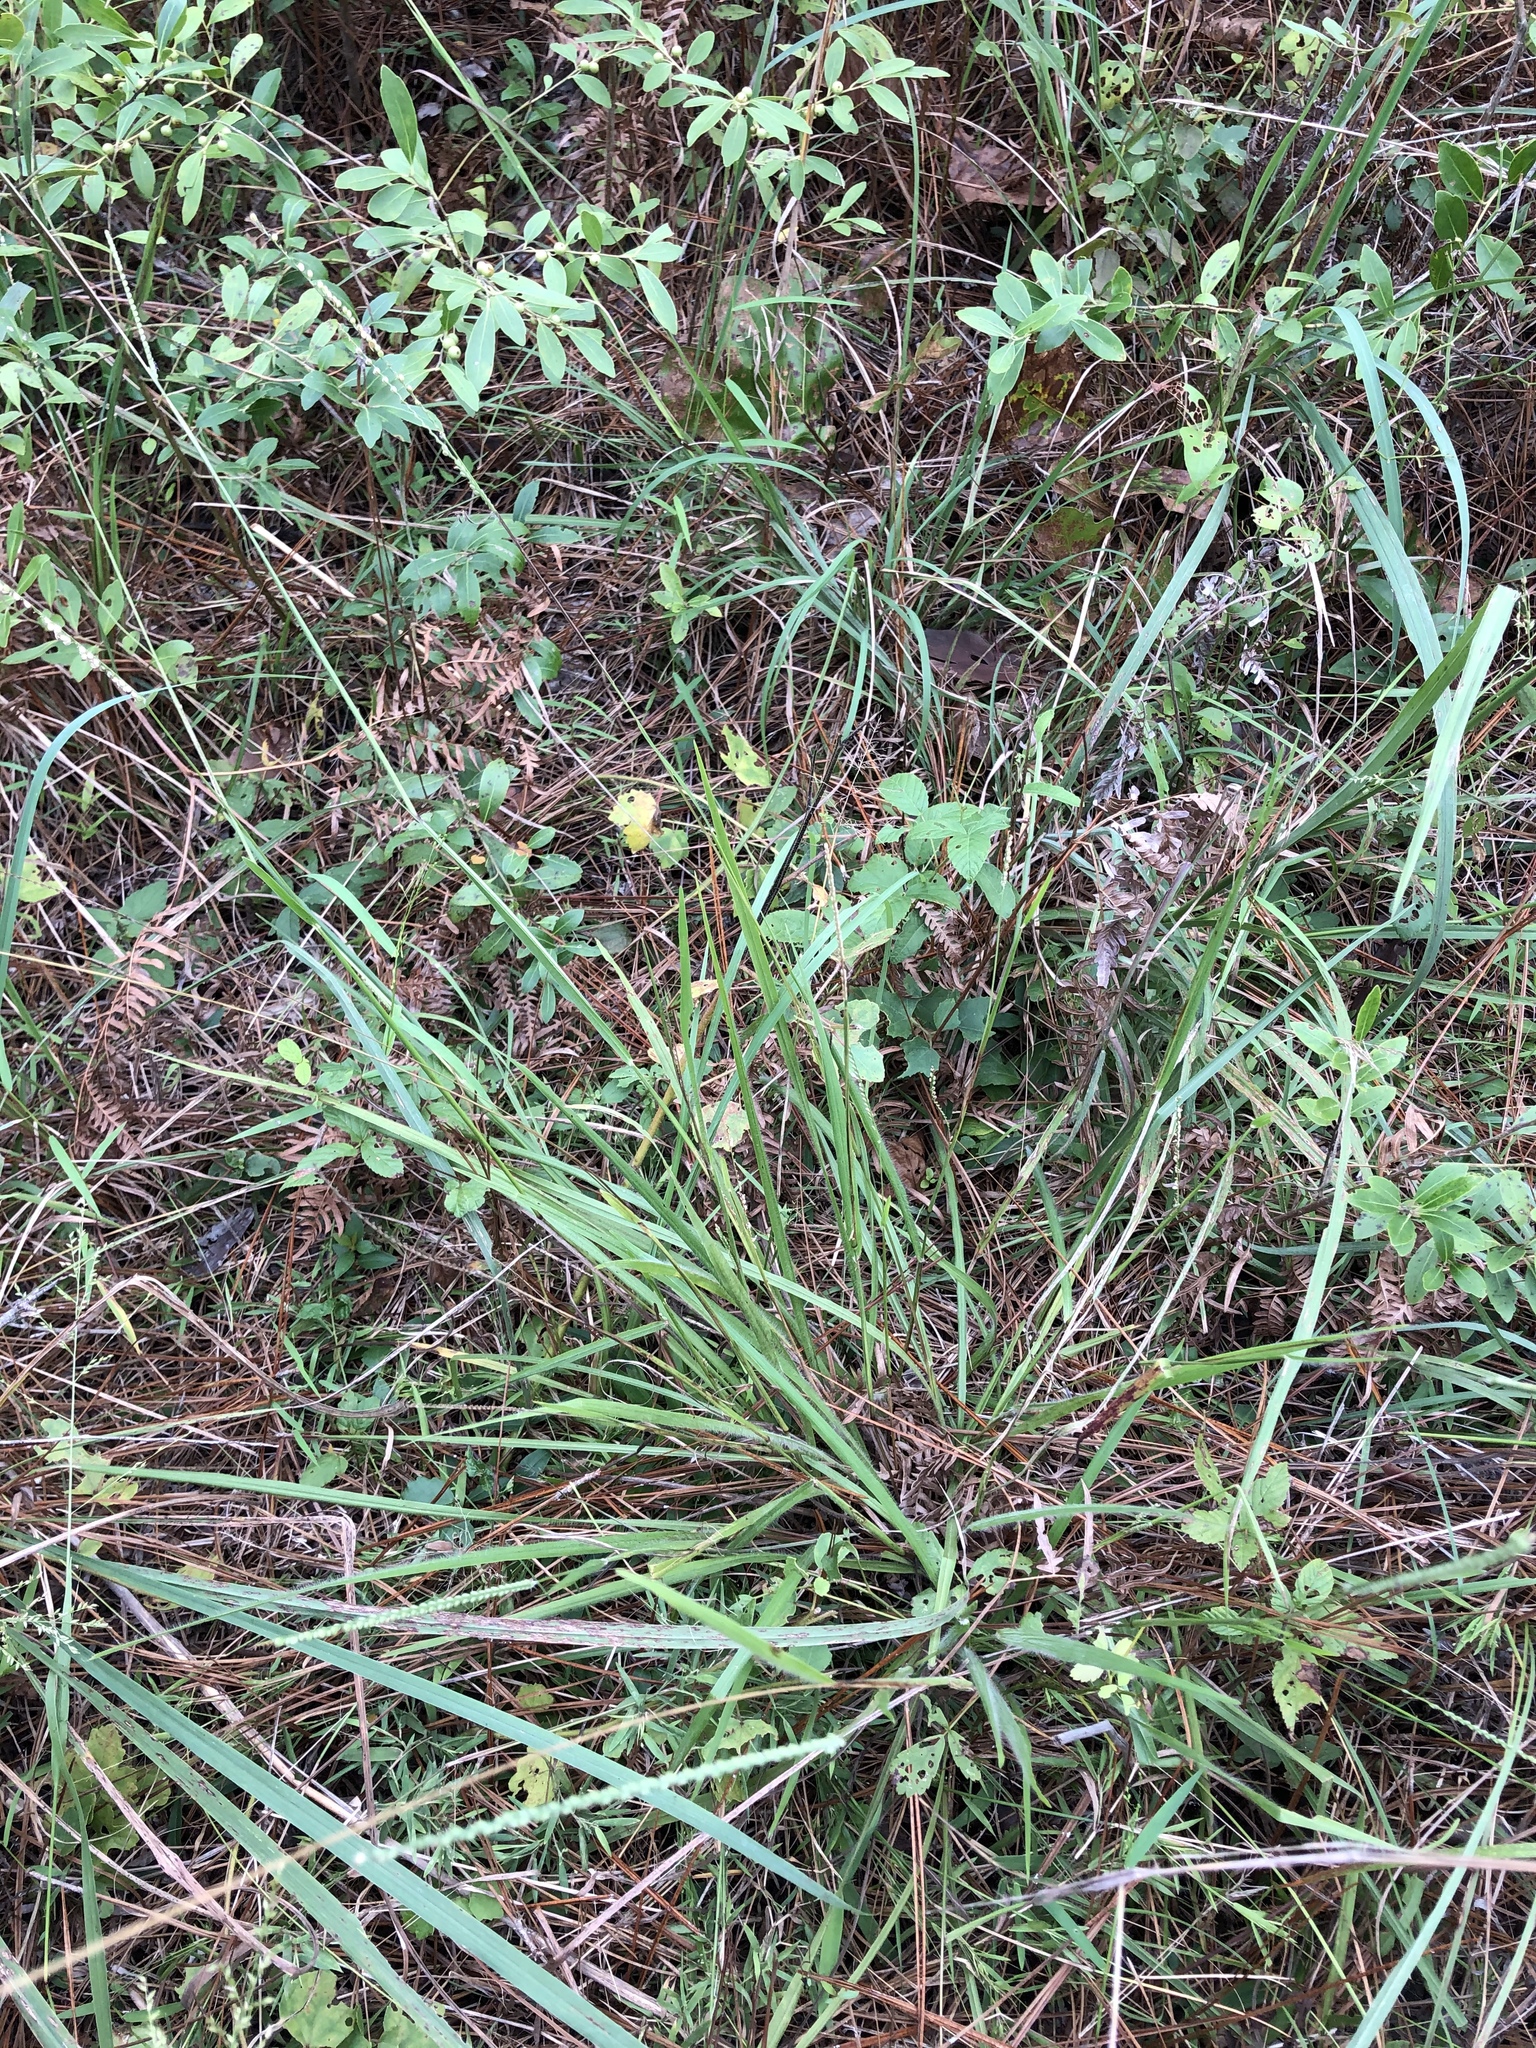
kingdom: Plantae
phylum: Tracheophyta
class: Liliopsida
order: Poales
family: Poaceae
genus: Paspalum
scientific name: Paspalum setaceum
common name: Slender paspalum
